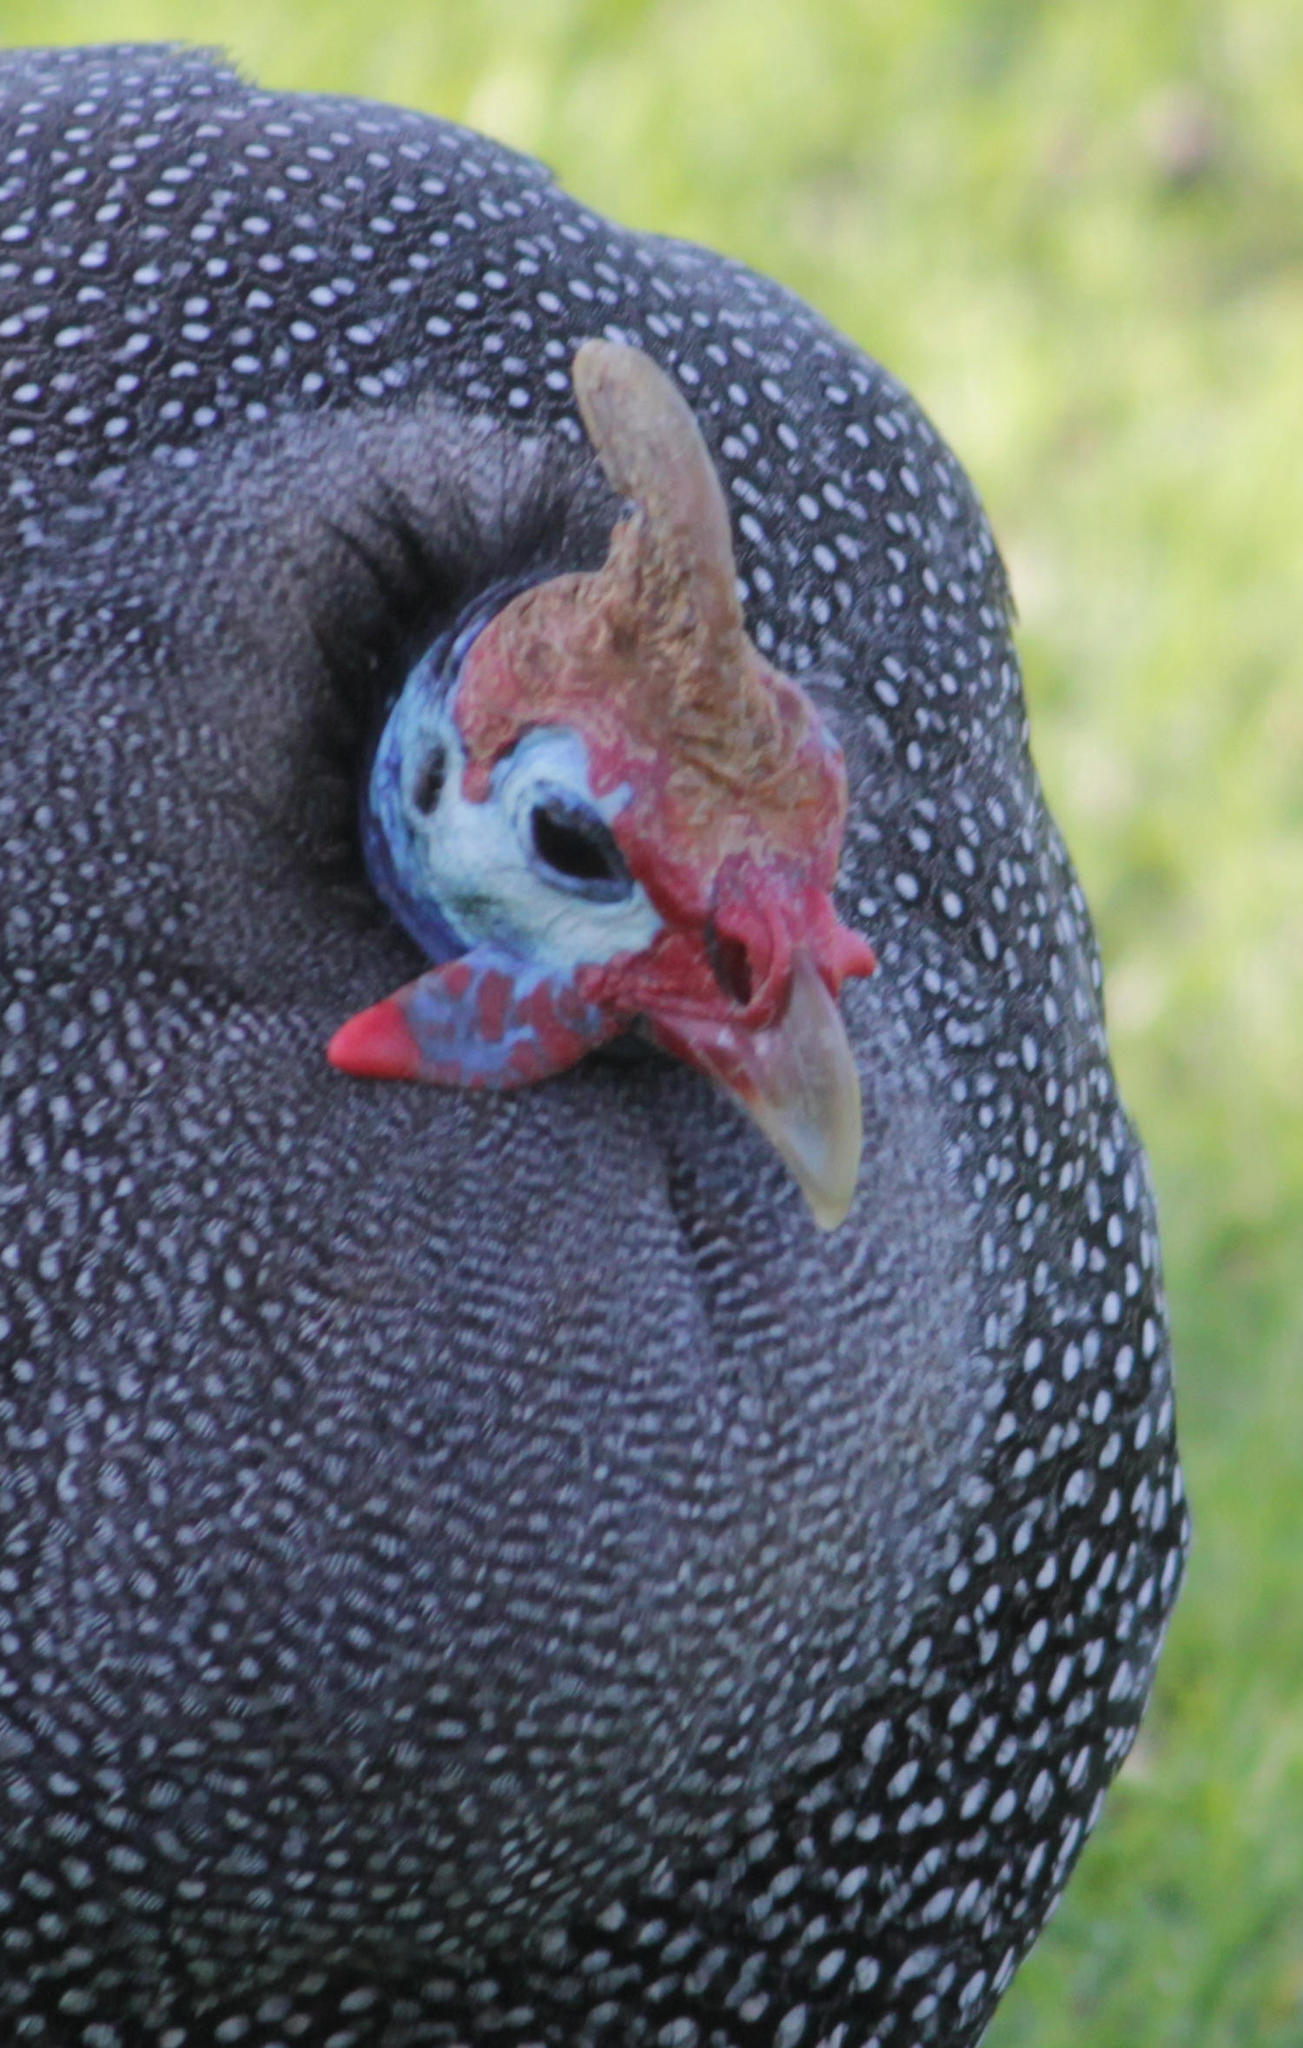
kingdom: Animalia
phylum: Chordata
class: Aves
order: Galliformes
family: Numididae
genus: Numida
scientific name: Numida meleagris
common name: Helmeted guineafowl
